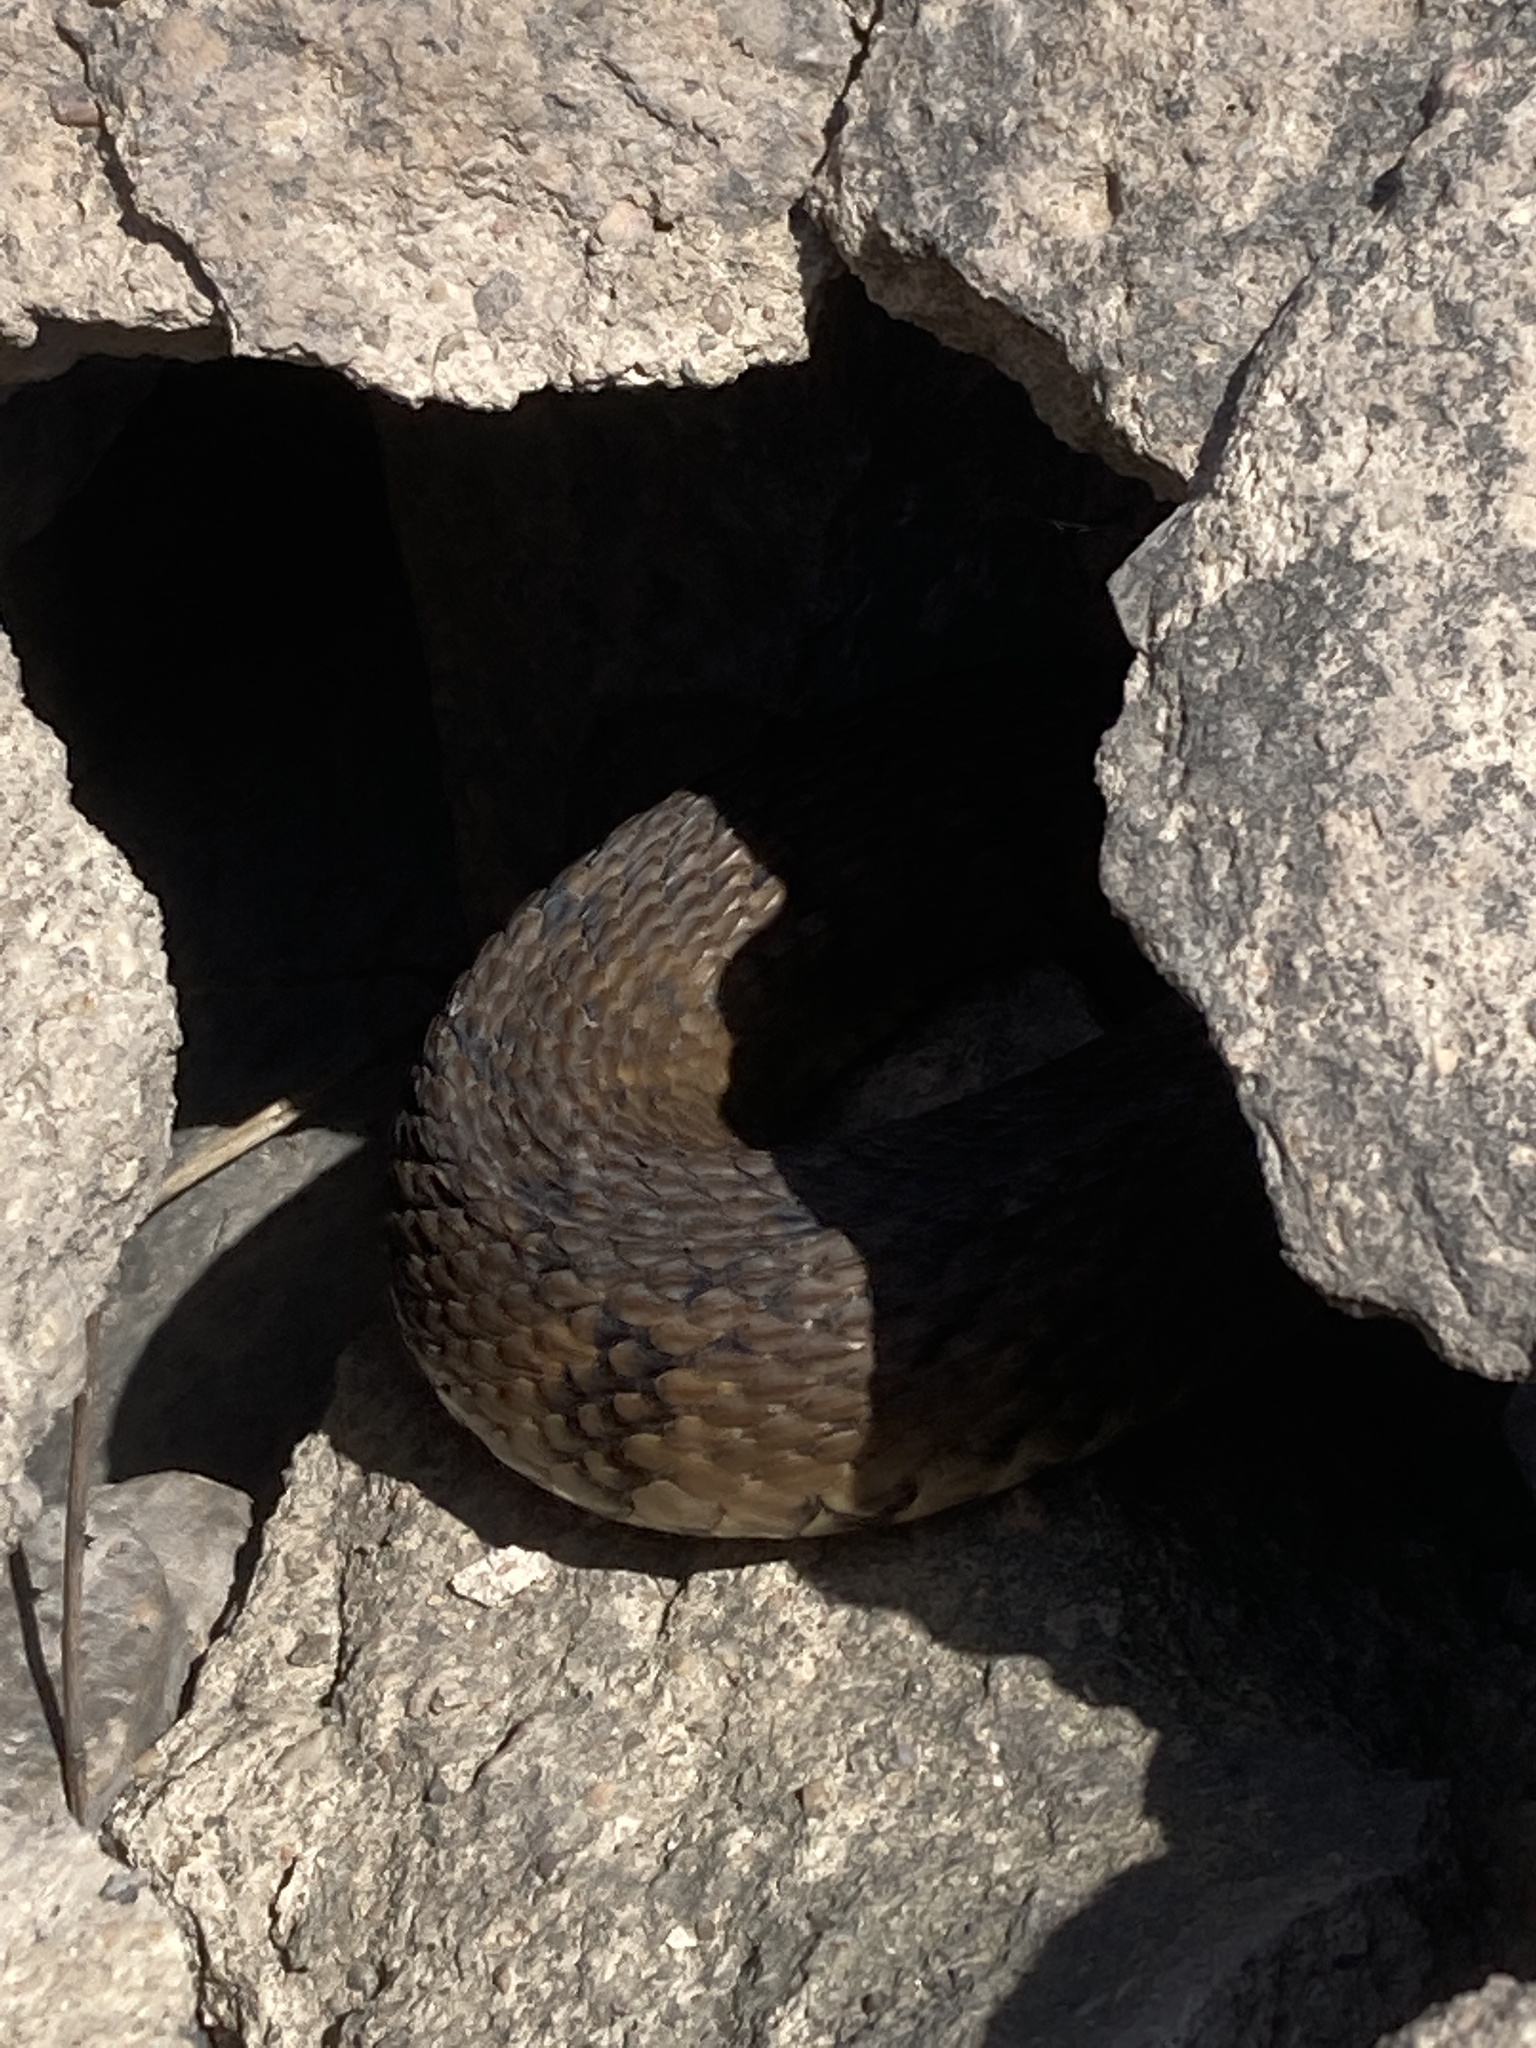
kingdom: Animalia
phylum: Chordata
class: Squamata
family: Colubridae
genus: Nerodia
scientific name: Nerodia rhombifer
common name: Diamondback water snake
